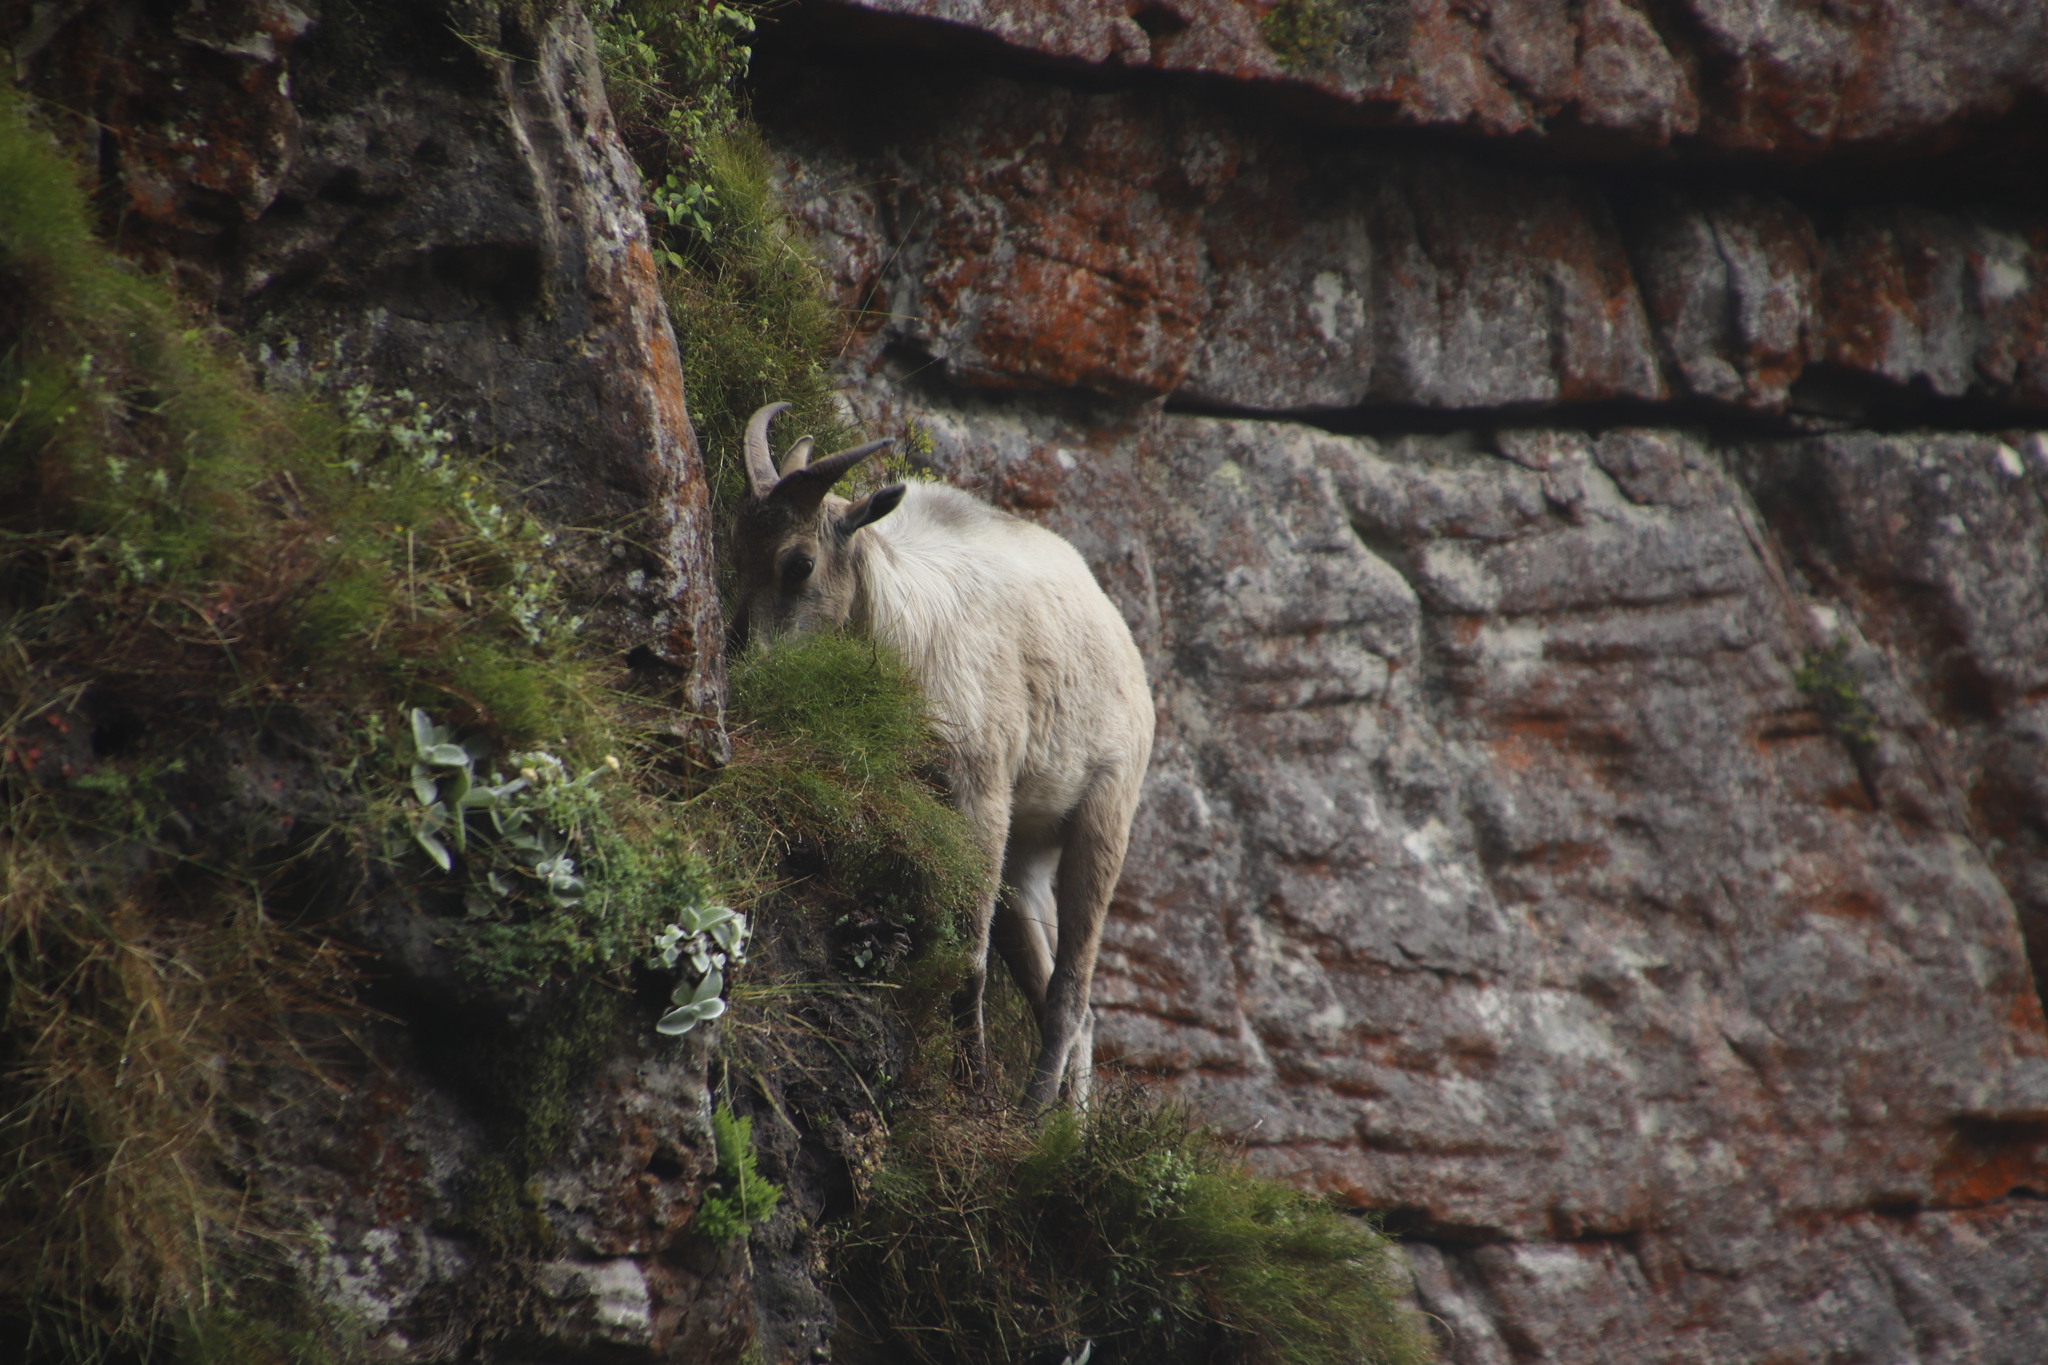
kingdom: Animalia
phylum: Chordata
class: Mammalia
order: Artiodactyla
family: Bovidae
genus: Hemitragus
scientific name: Hemitragus jemlahicus
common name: Himalayan tahr
